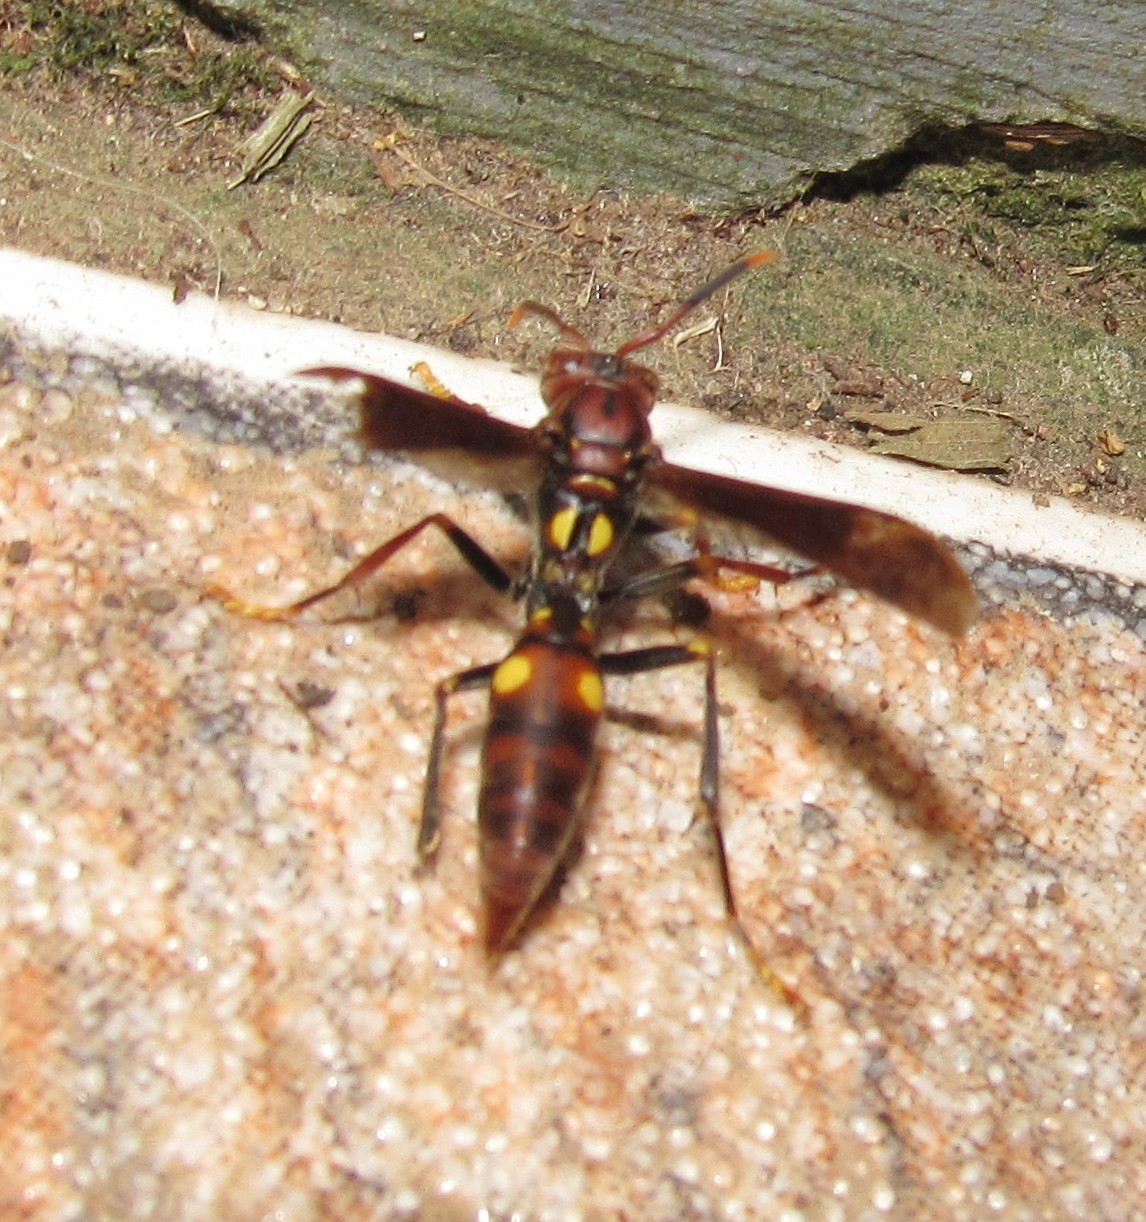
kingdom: Animalia
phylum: Arthropoda
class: Insecta
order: Hymenoptera
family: Eumenidae
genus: Polistes
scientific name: Polistes simillimus
